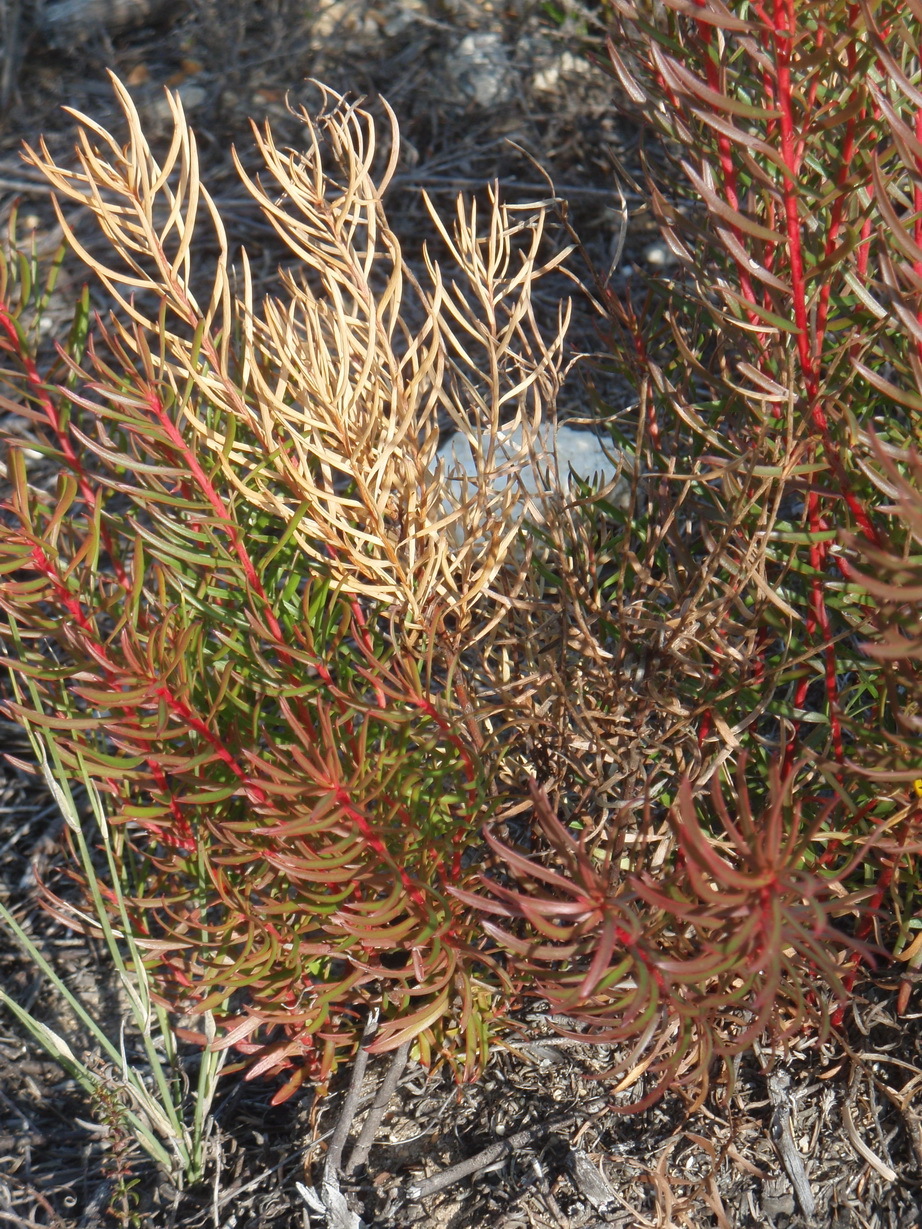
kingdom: Plantae
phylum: Tracheophyta
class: Magnoliopsida
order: Proteales
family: Proteaceae
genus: Leucadendron
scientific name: Leucadendron salignum
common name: Common sunshine conebush
